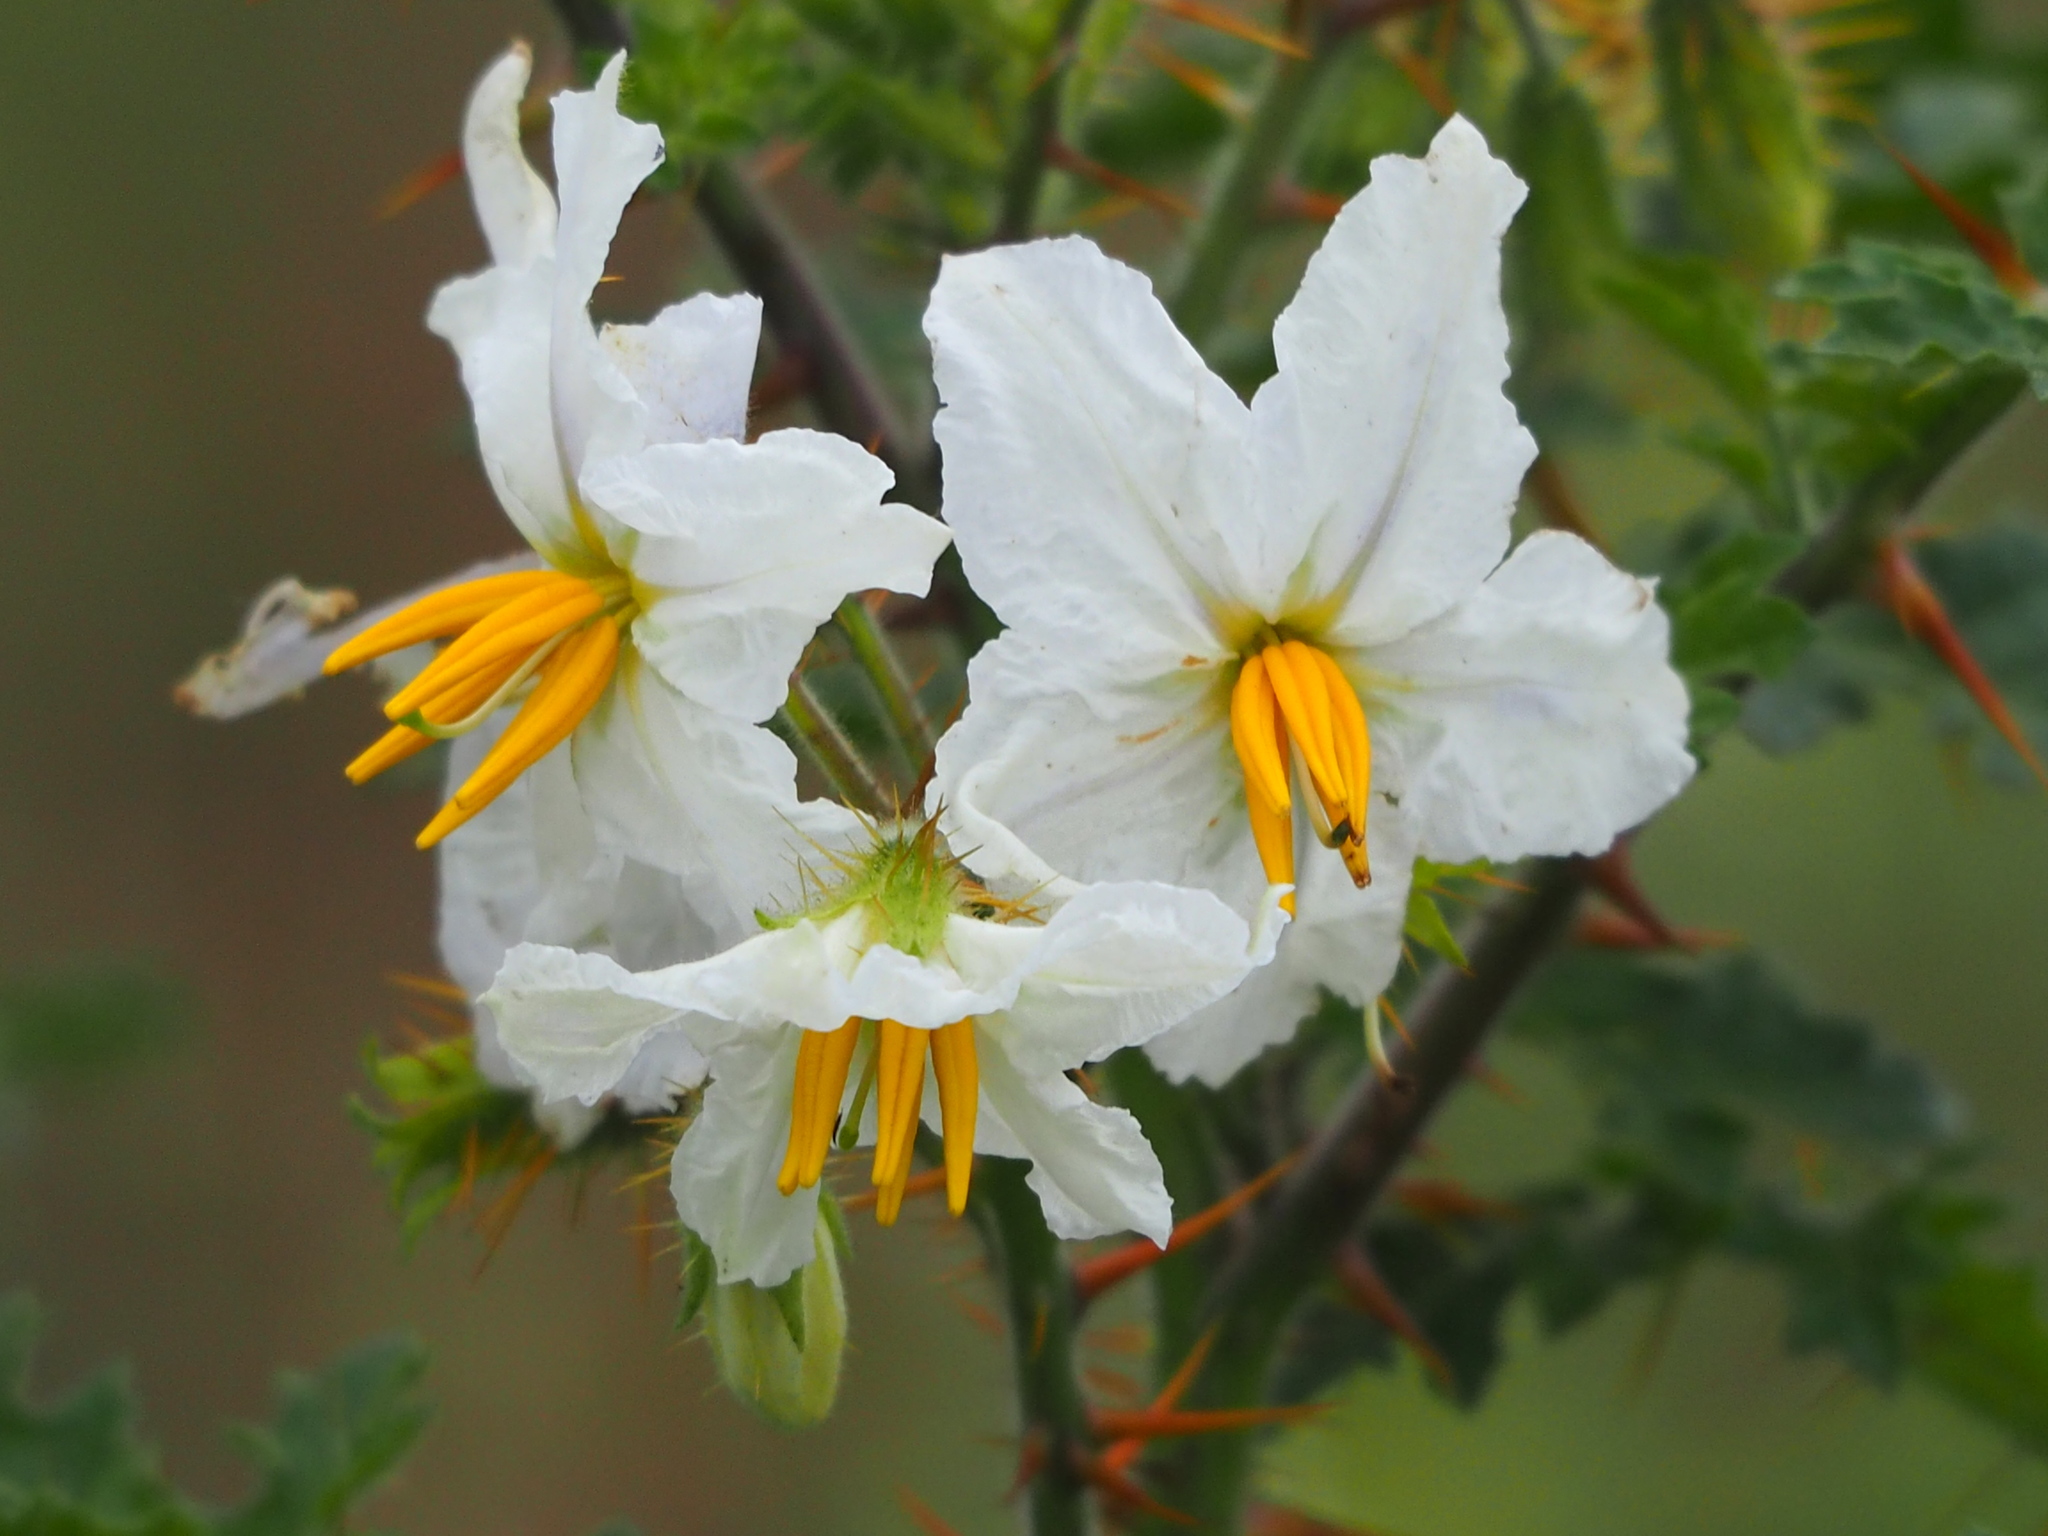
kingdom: Plantae
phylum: Tracheophyta
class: Magnoliopsida
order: Solanales
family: Solanaceae
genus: Solanum
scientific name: Solanum sisymbriifolium
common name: Red buffalo-bur
